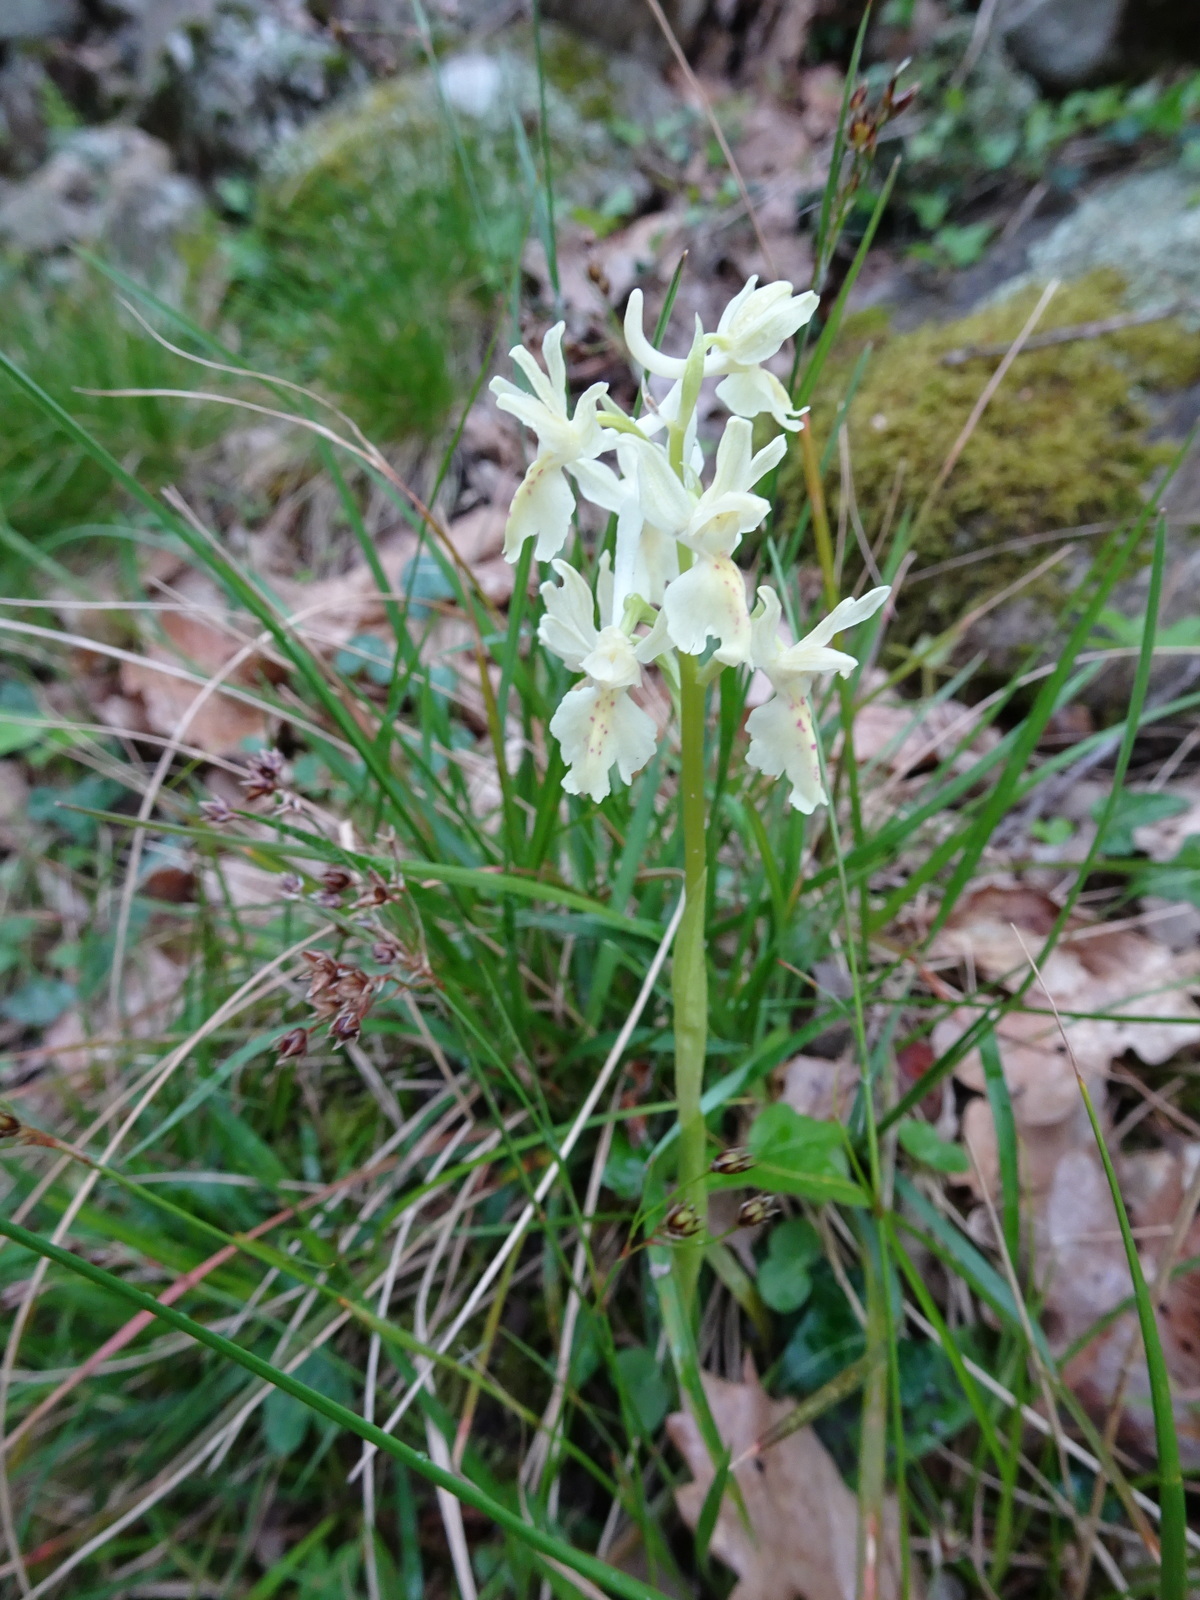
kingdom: Plantae
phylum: Tracheophyta
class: Liliopsida
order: Asparagales
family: Orchidaceae
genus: Orchis
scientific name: Orchis provincialis
